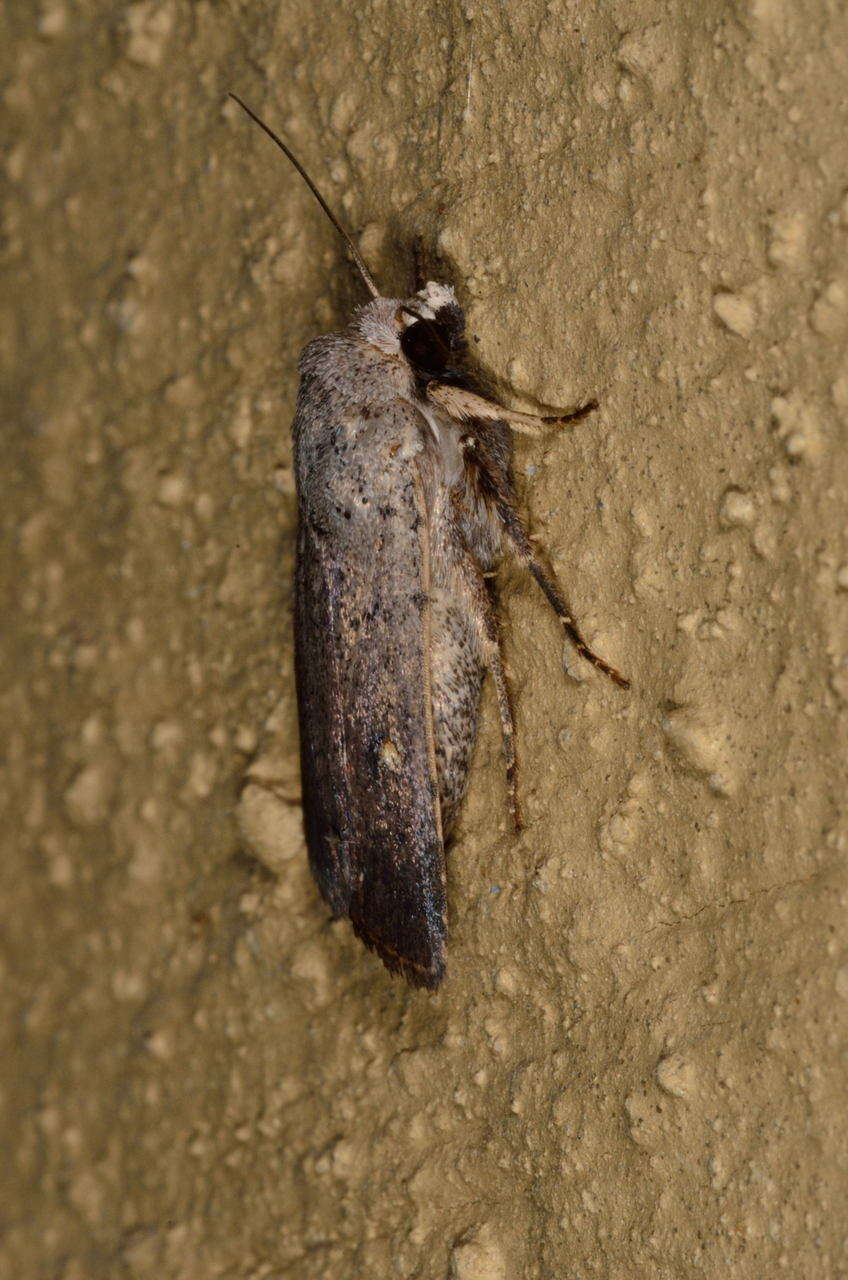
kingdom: Animalia
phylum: Arthropoda
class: Insecta
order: Lepidoptera
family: Noctuidae
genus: Proteuxoa
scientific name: Proteuxoa tibiata
